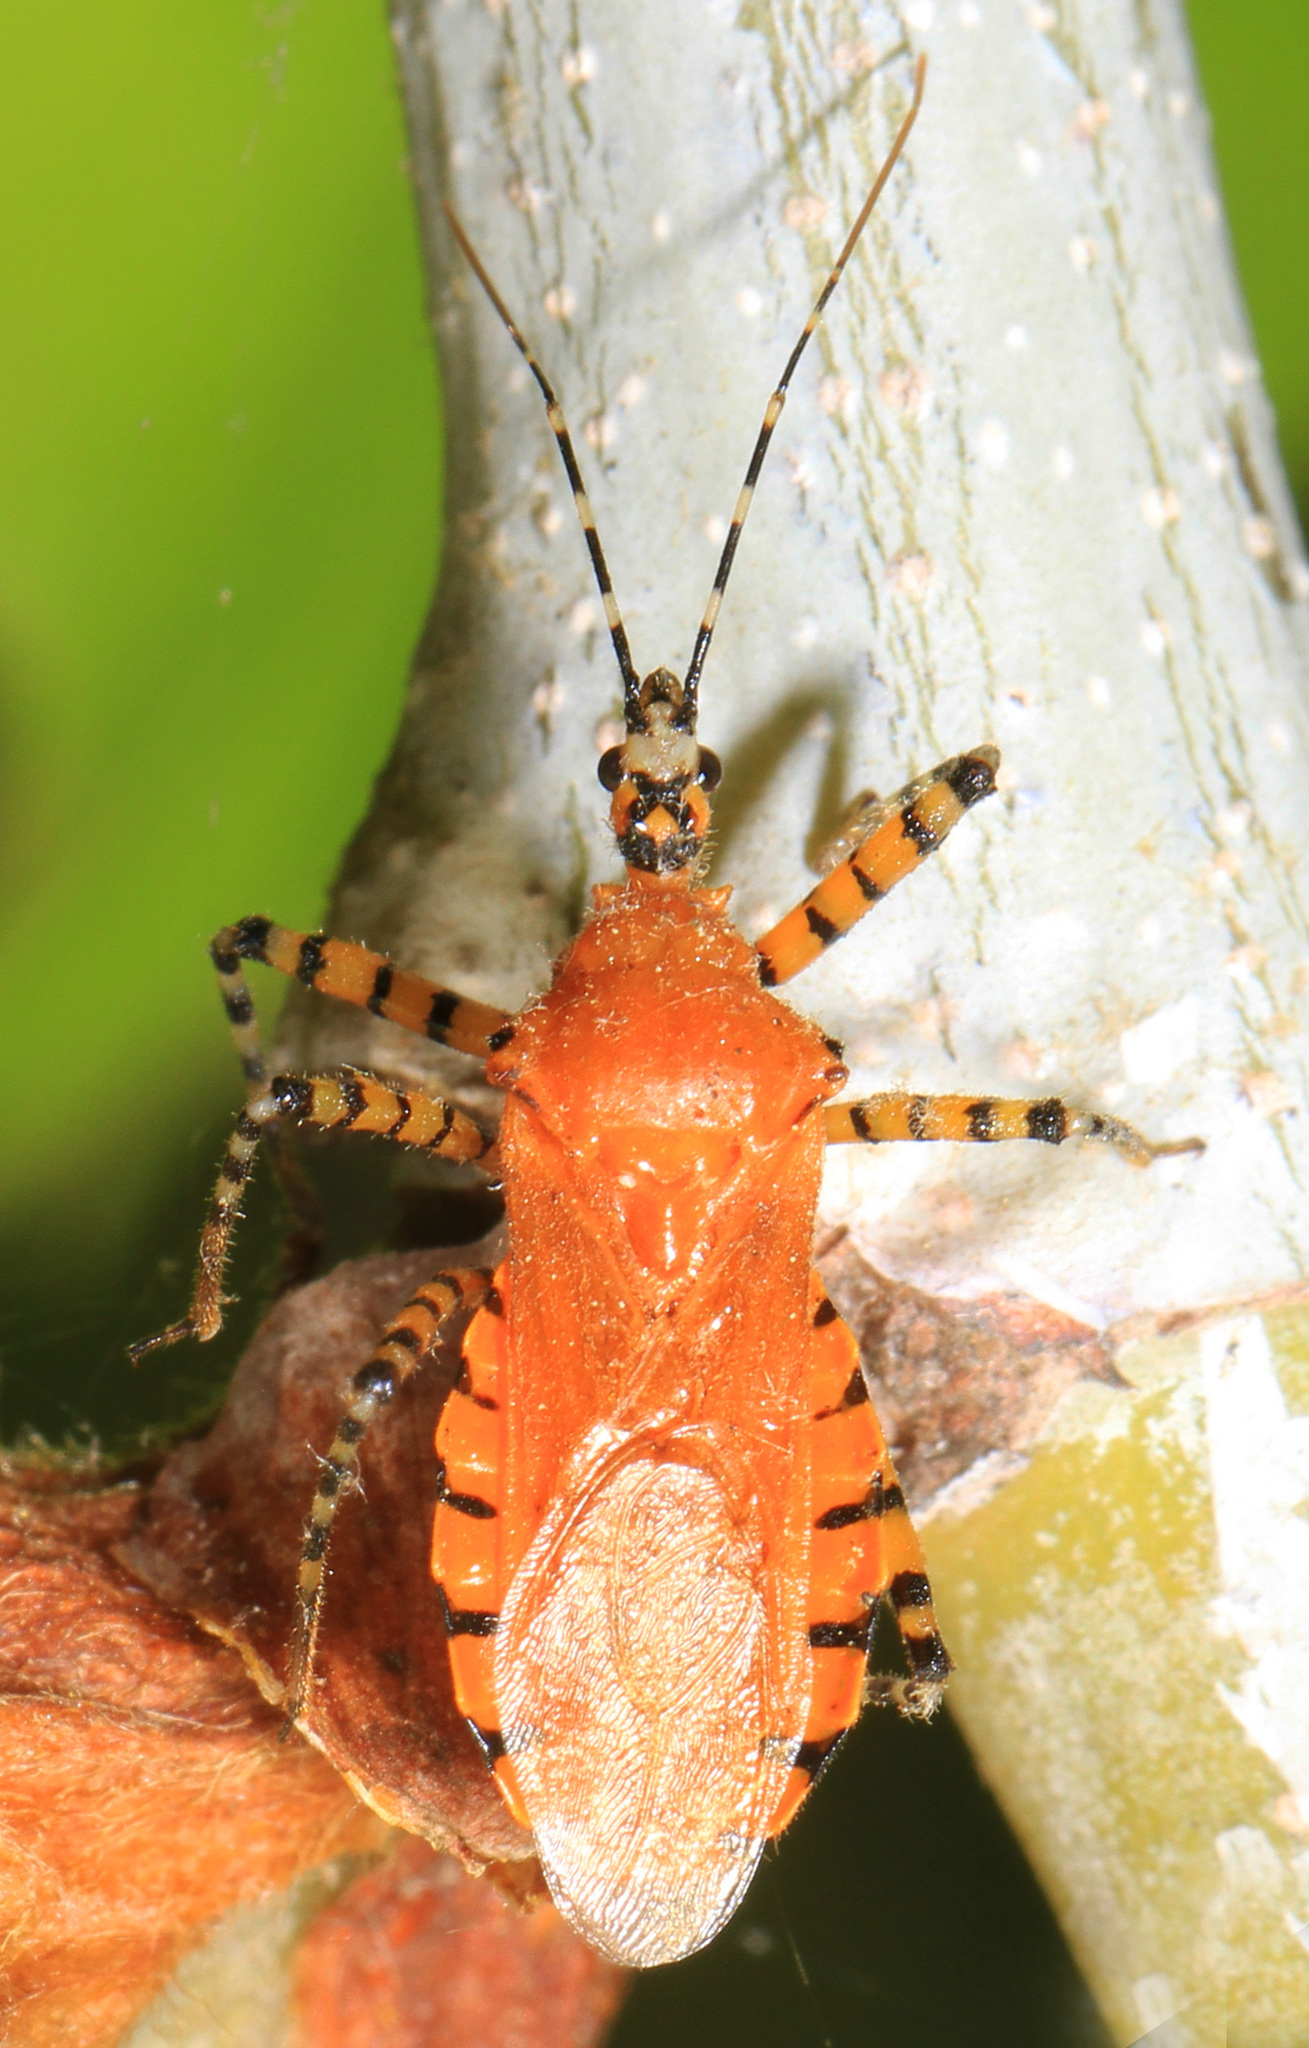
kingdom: Animalia
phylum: Arthropoda
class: Insecta
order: Hemiptera
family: Reduviidae
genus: Pselliopus
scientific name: Pselliopus barberi
